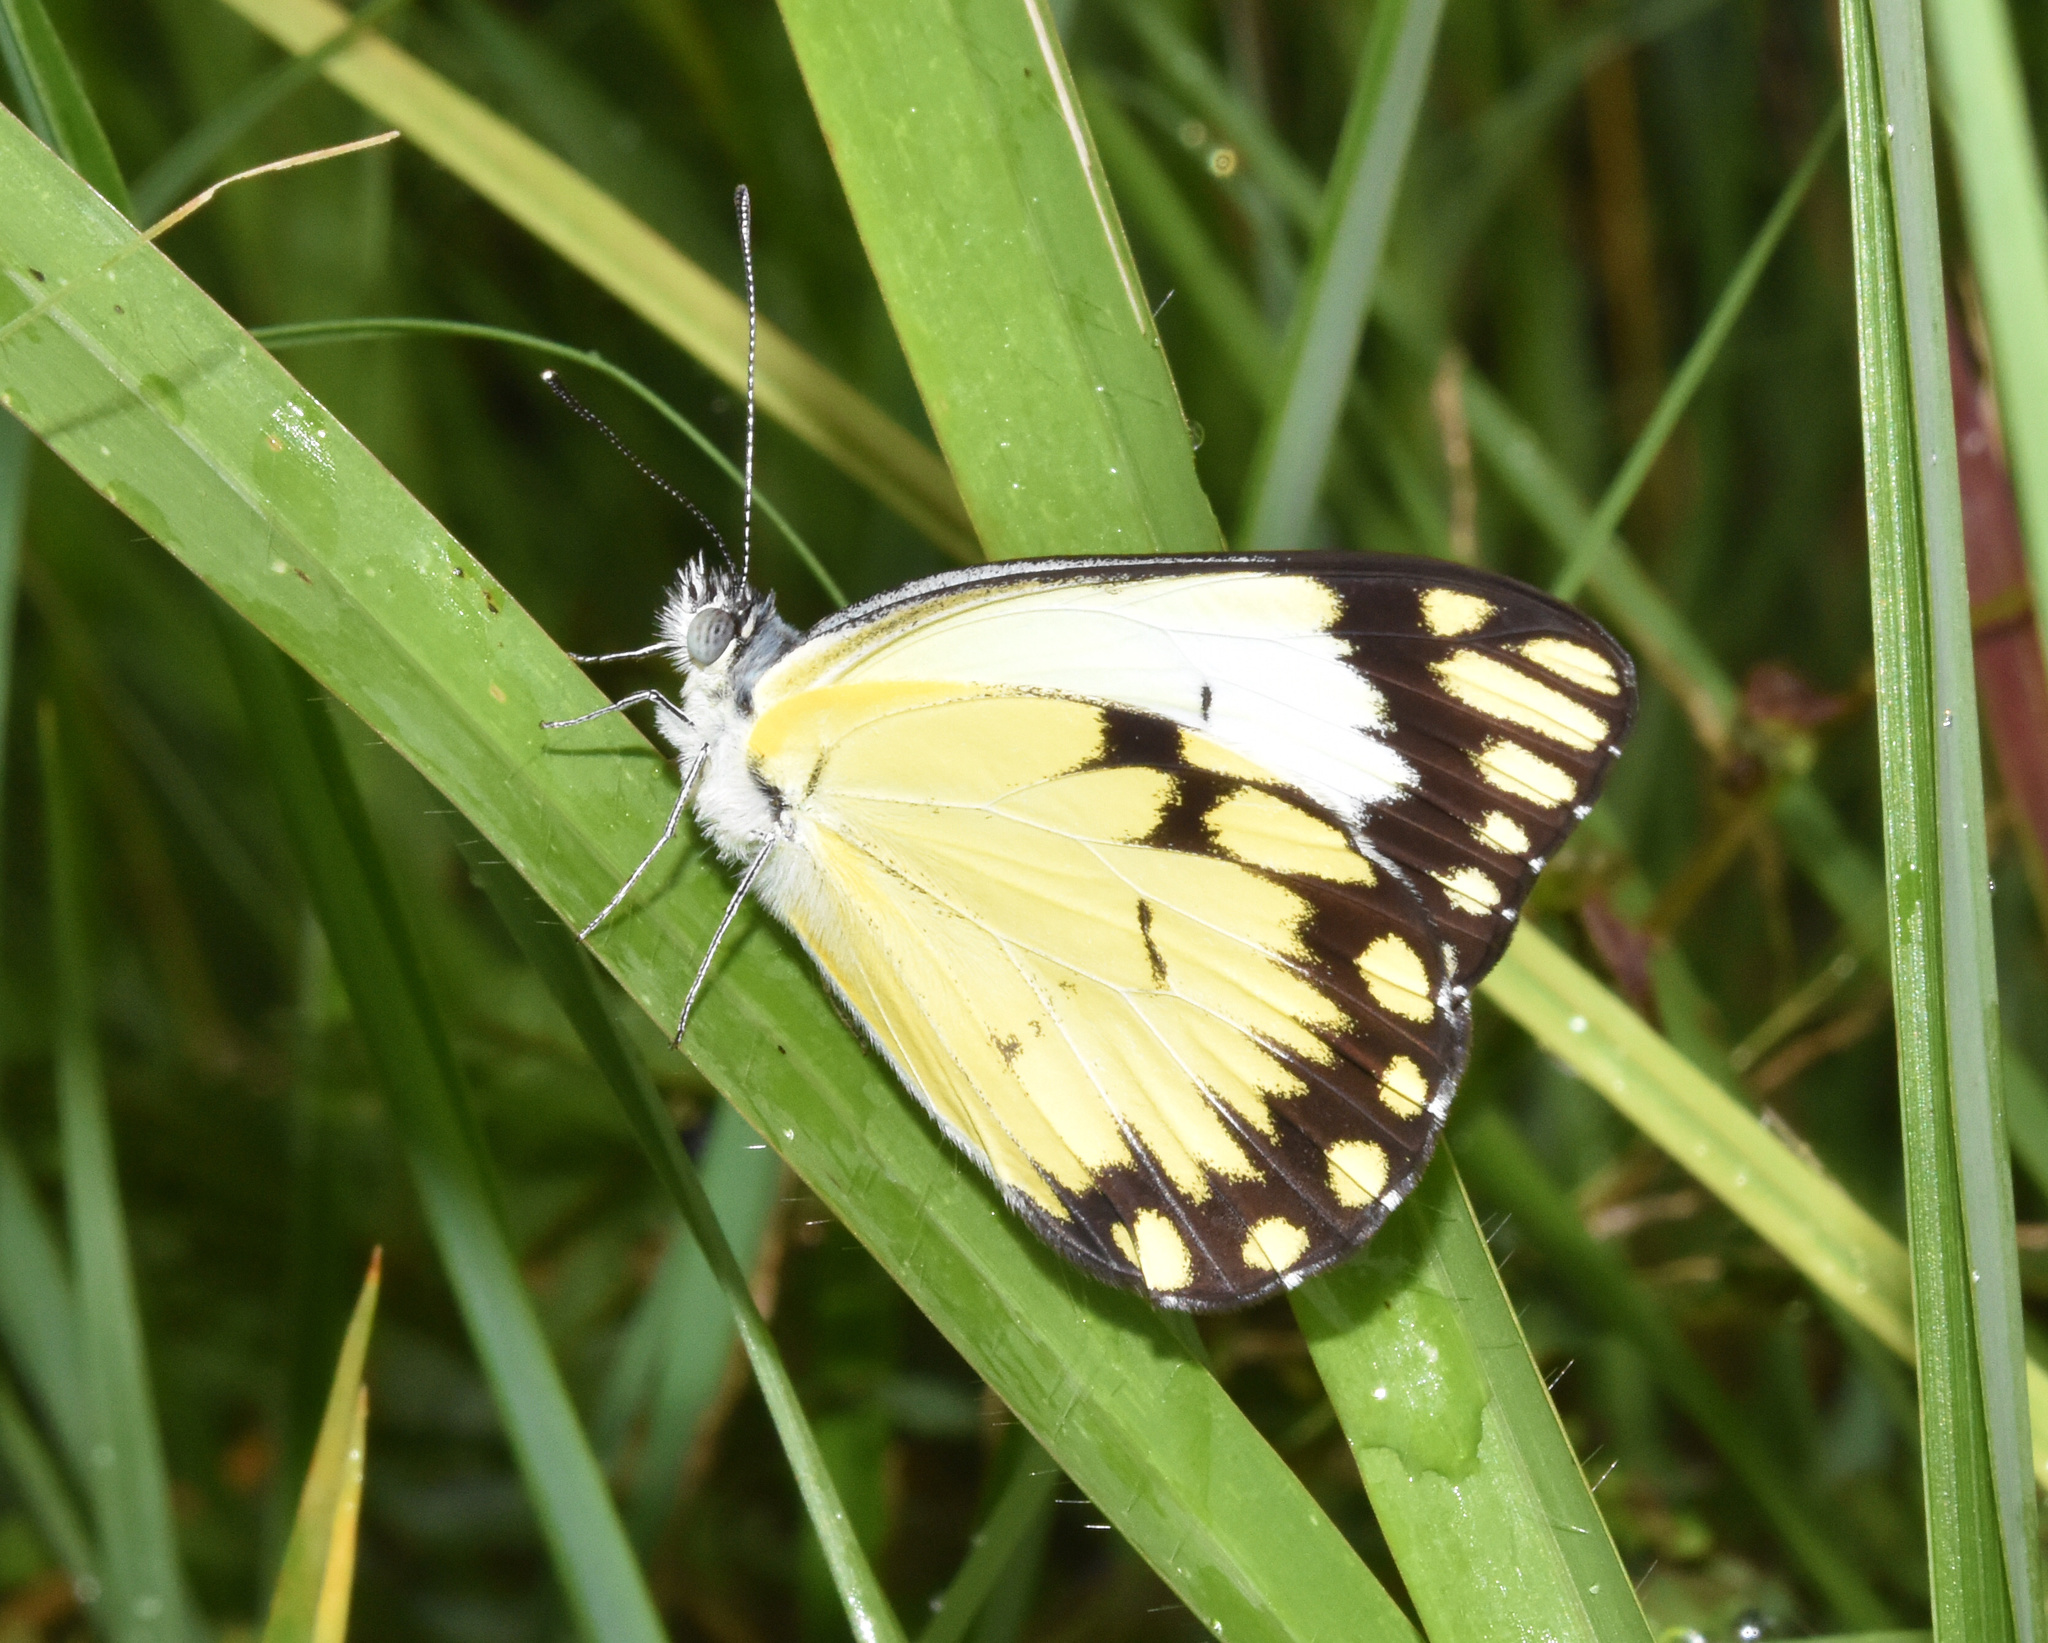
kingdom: Animalia
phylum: Arthropoda
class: Insecta
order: Lepidoptera
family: Pieridae
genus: Belenois
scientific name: Belenois creona
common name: African caper white
